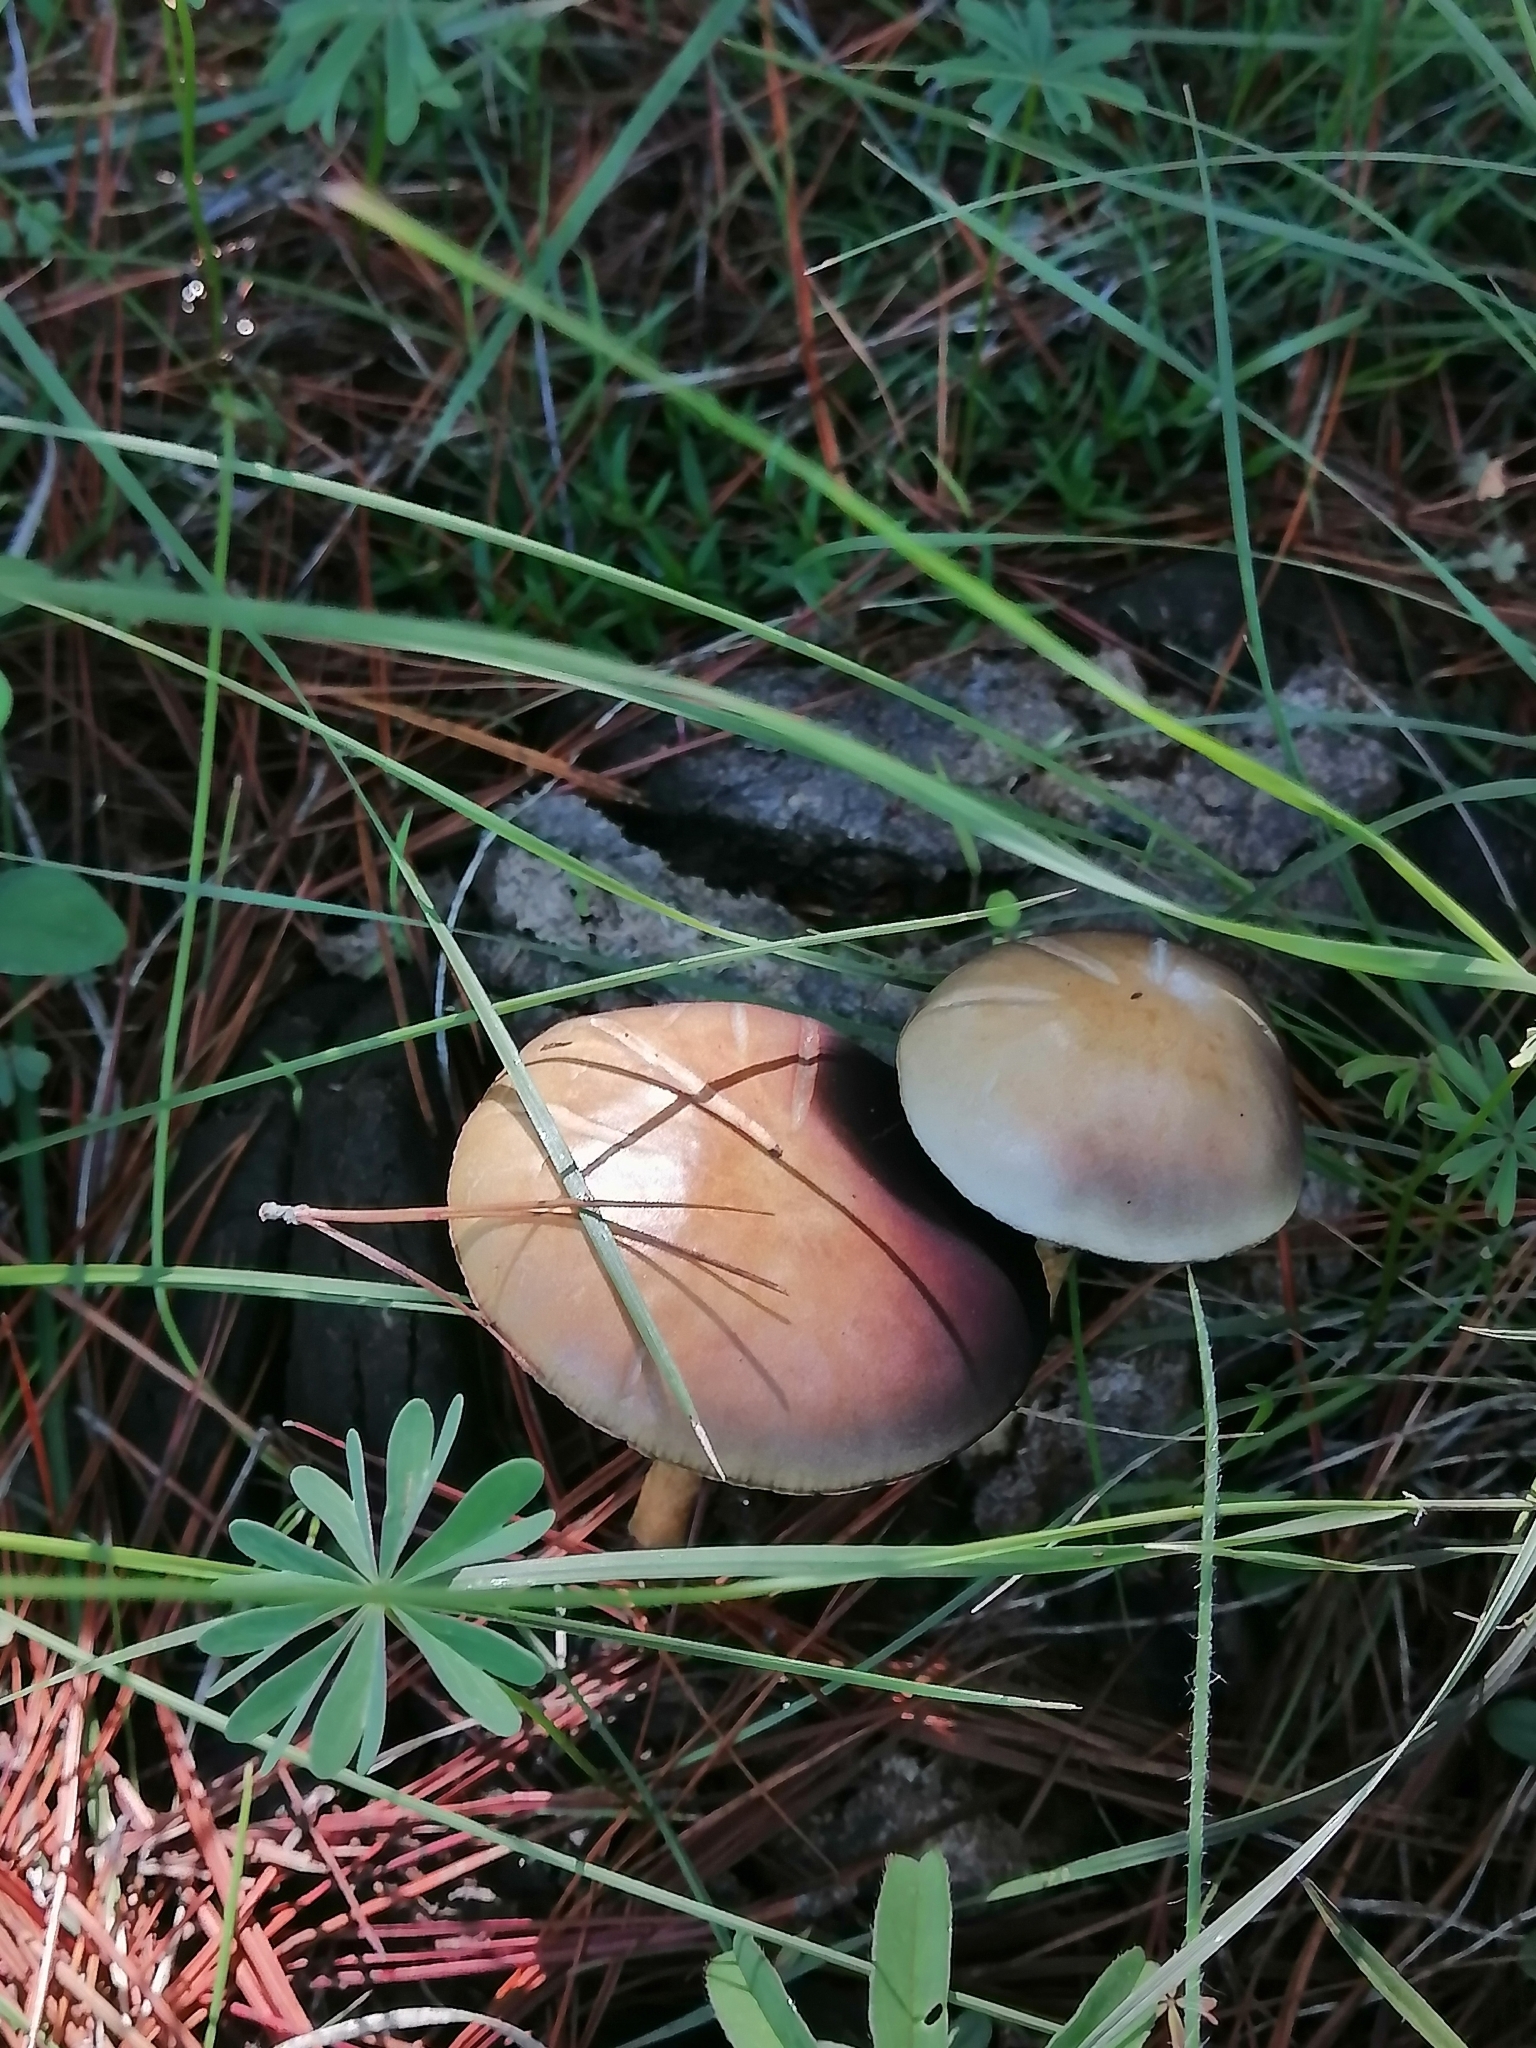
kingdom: Fungi
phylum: Basidiomycota
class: Agaricomycetes
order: Agaricales
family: Strophariaceae
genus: Protostropharia
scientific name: Protostropharia semiglobata
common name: Dung roundhead
